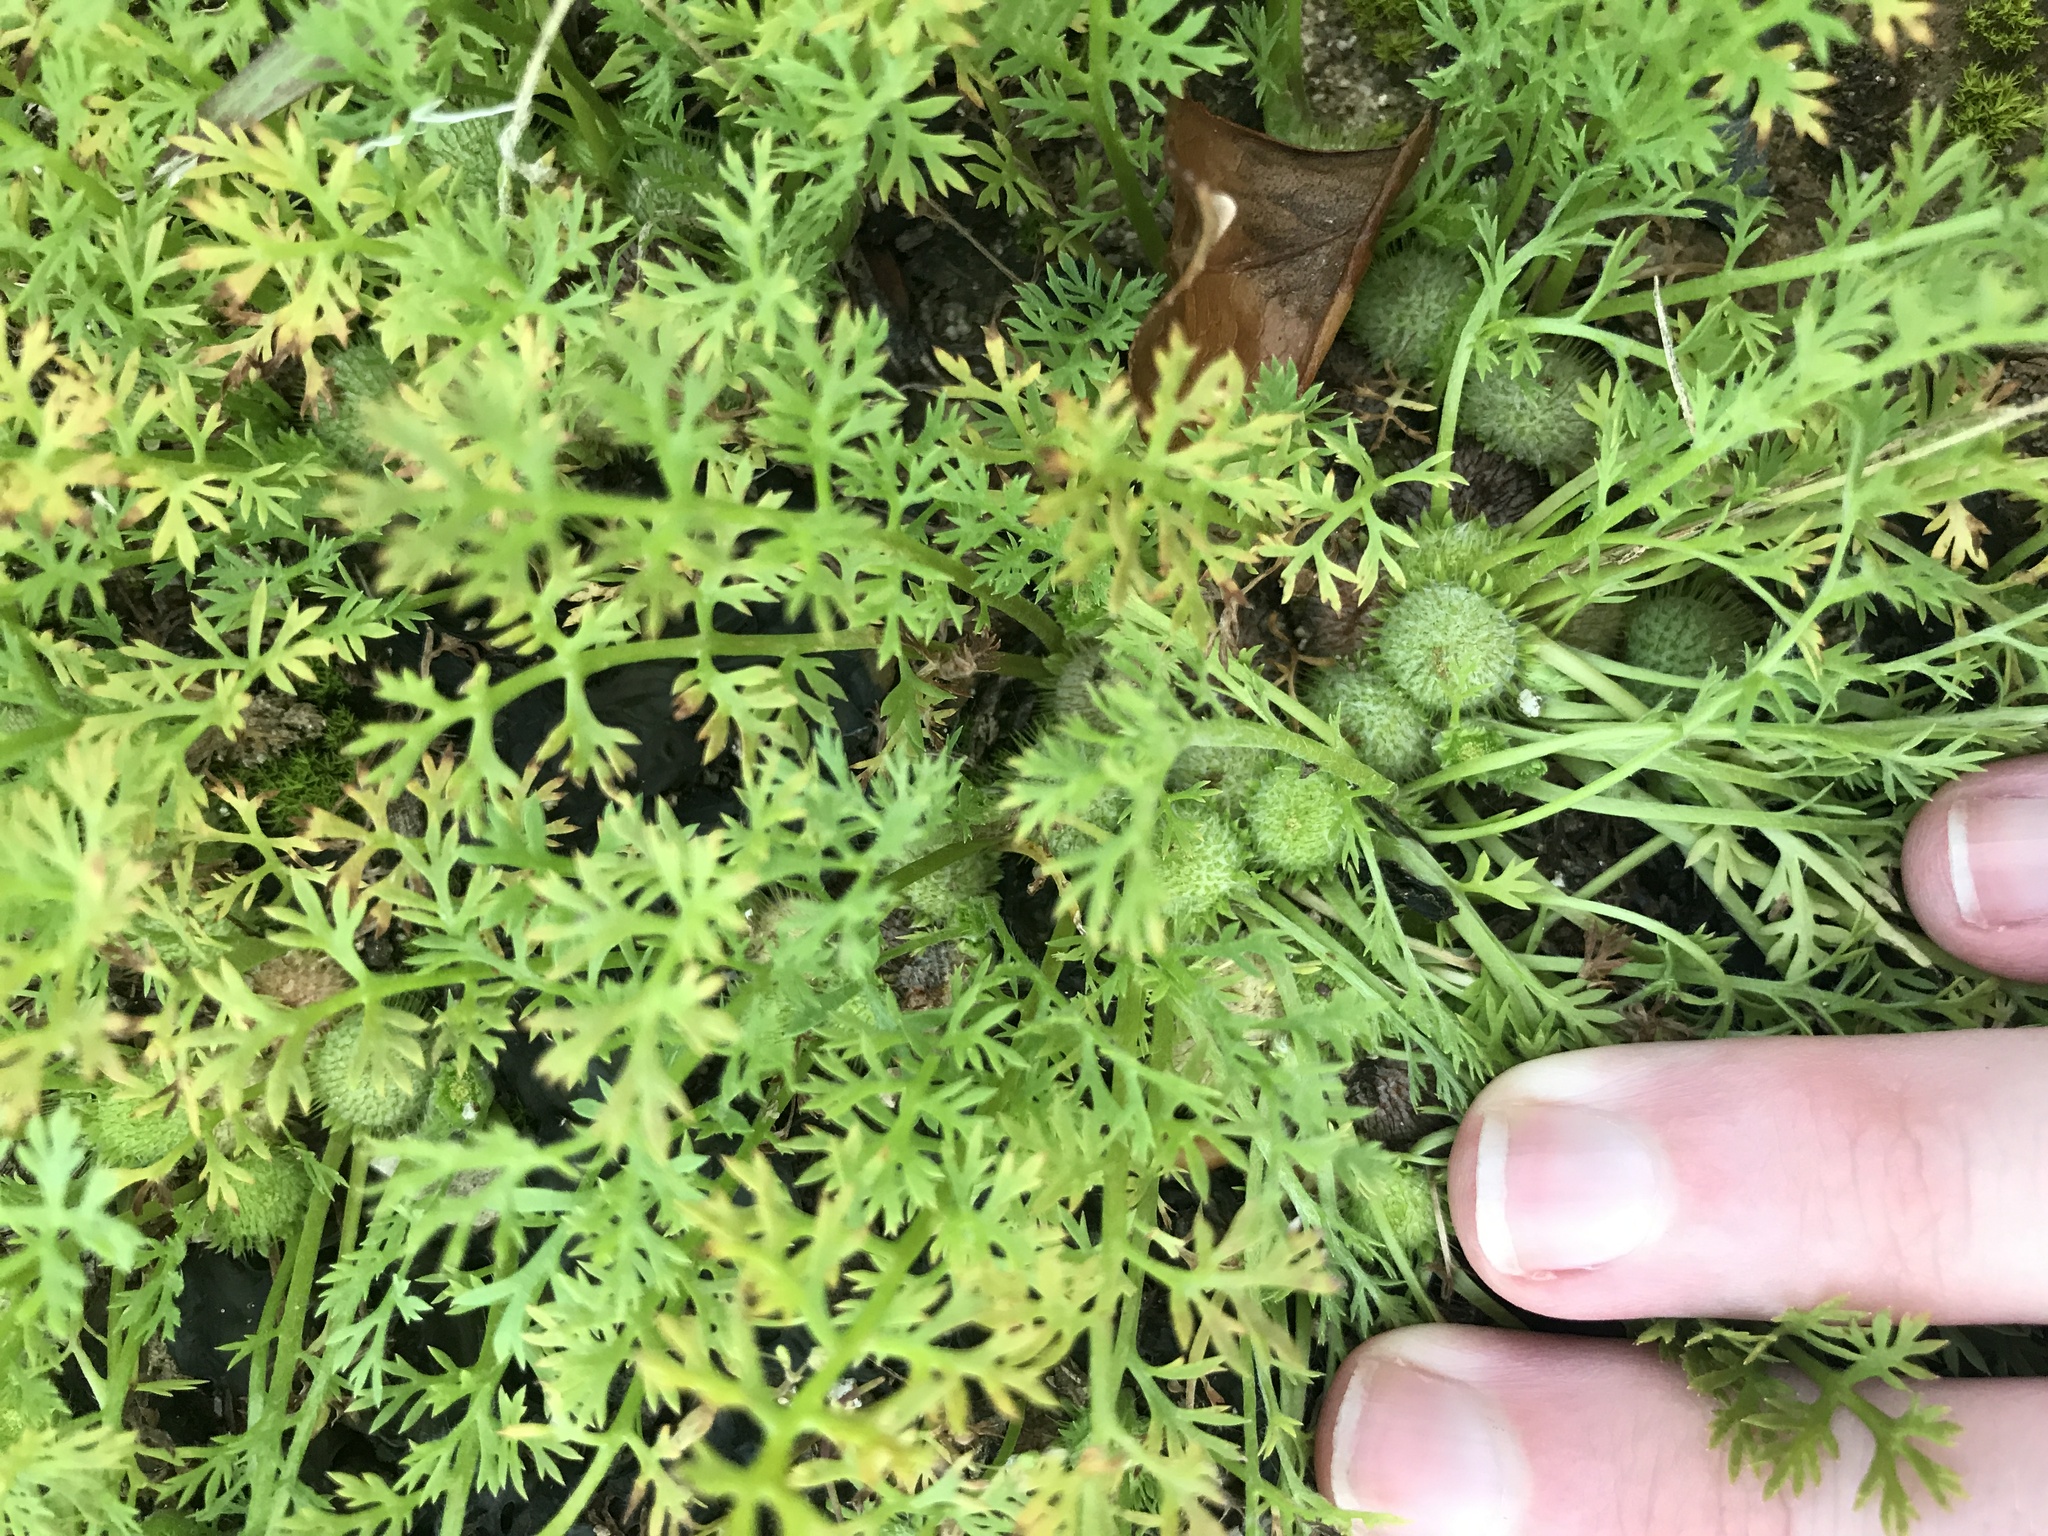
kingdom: Plantae
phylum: Tracheophyta
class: Magnoliopsida
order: Asterales
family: Asteraceae
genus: Soliva
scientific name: Soliva anthemifolia
